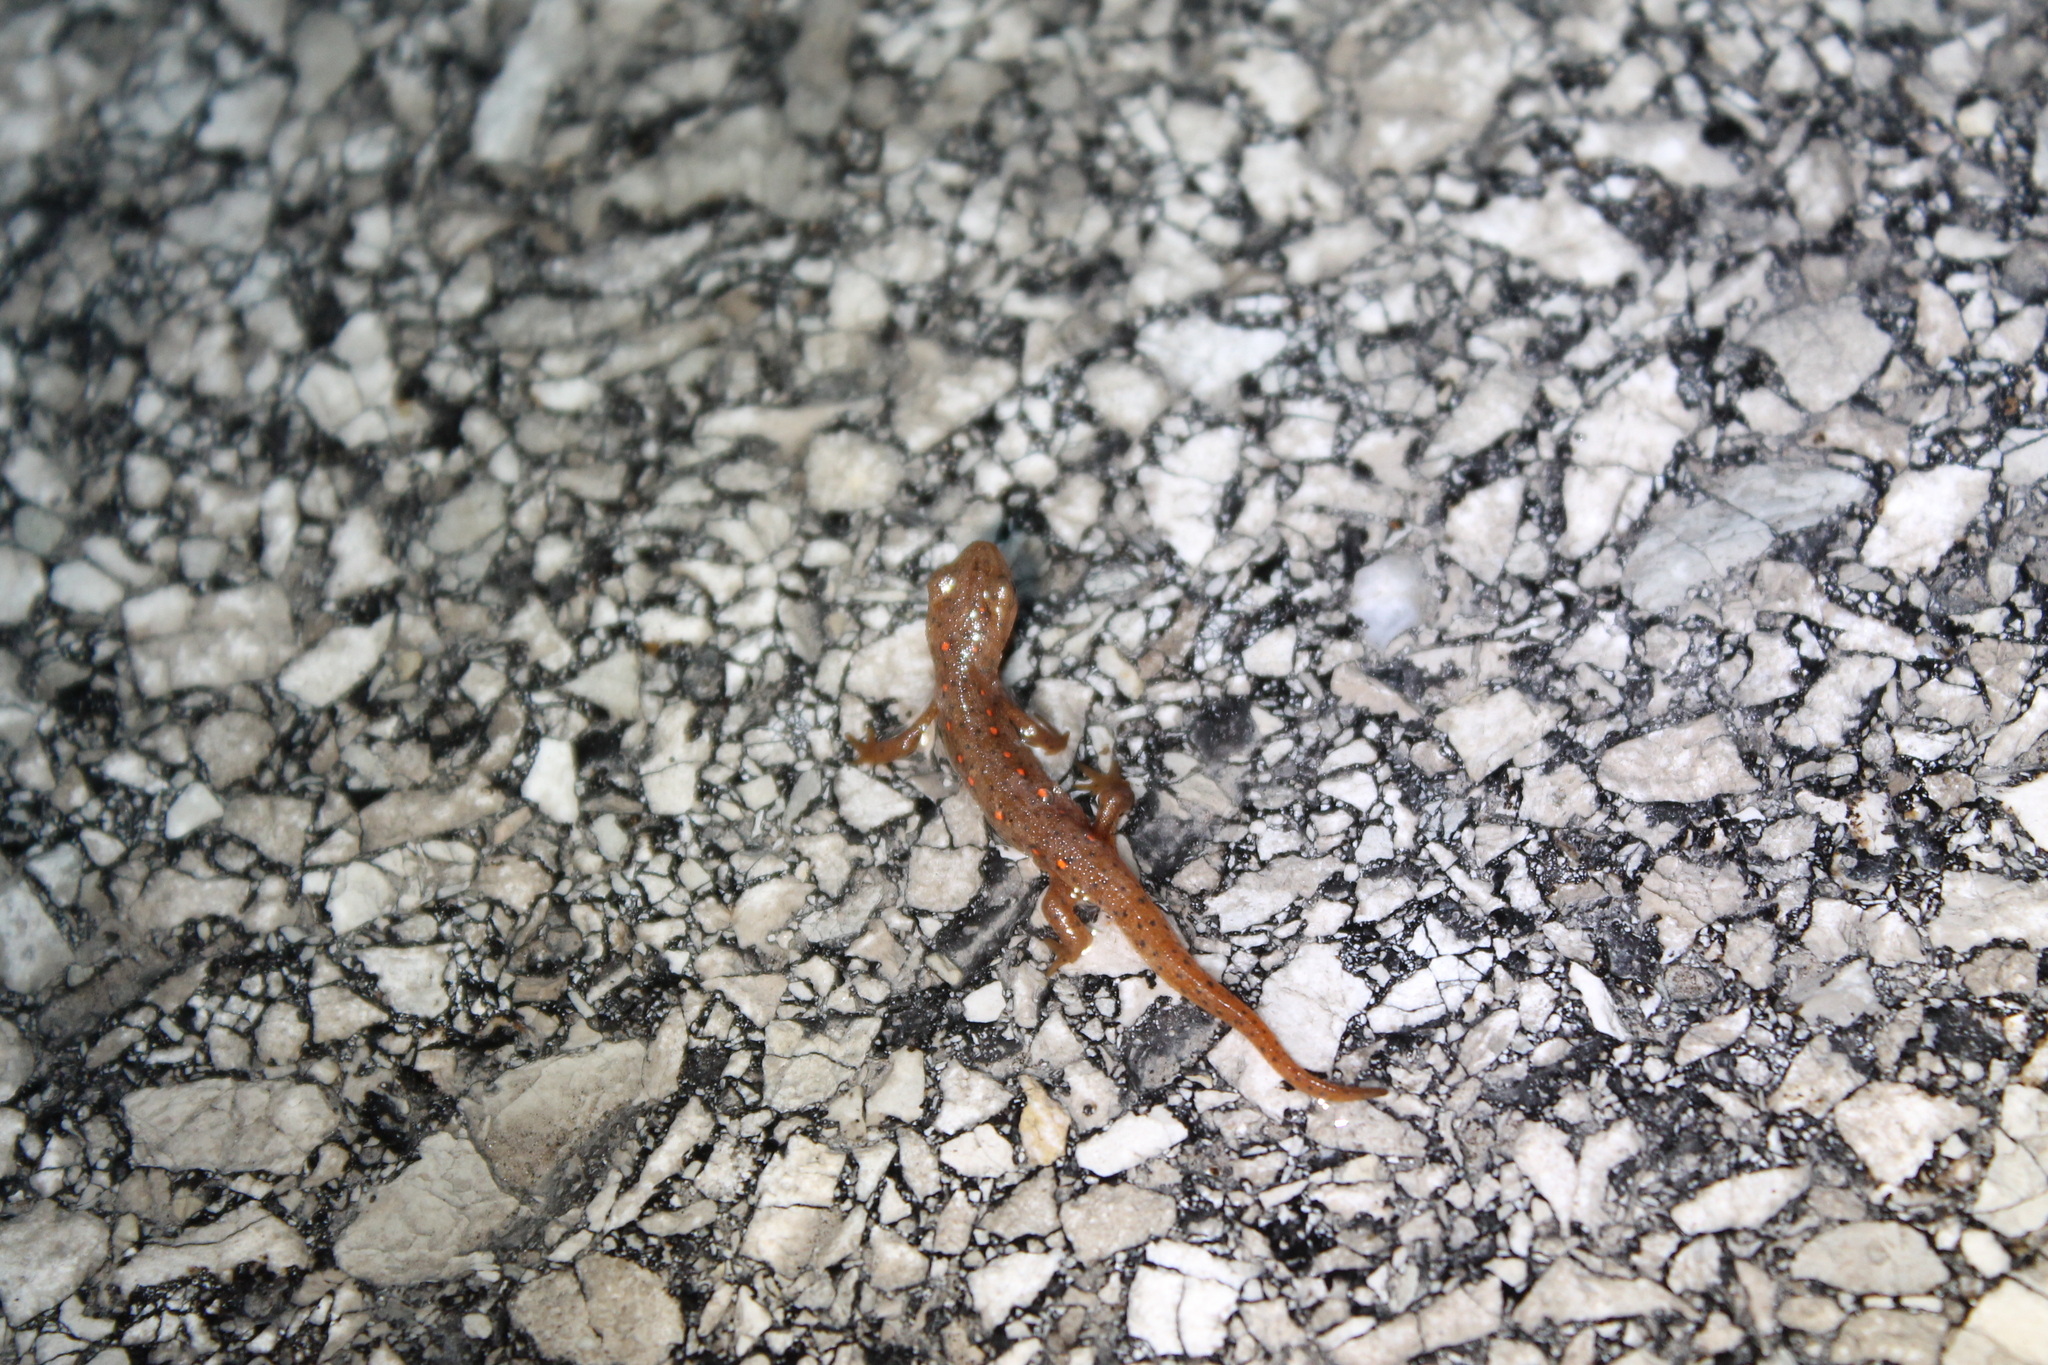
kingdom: Animalia
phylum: Chordata
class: Amphibia
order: Caudata
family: Salamandridae
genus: Notophthalmus
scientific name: Notophthalmus viridescens
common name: Eastern newt
